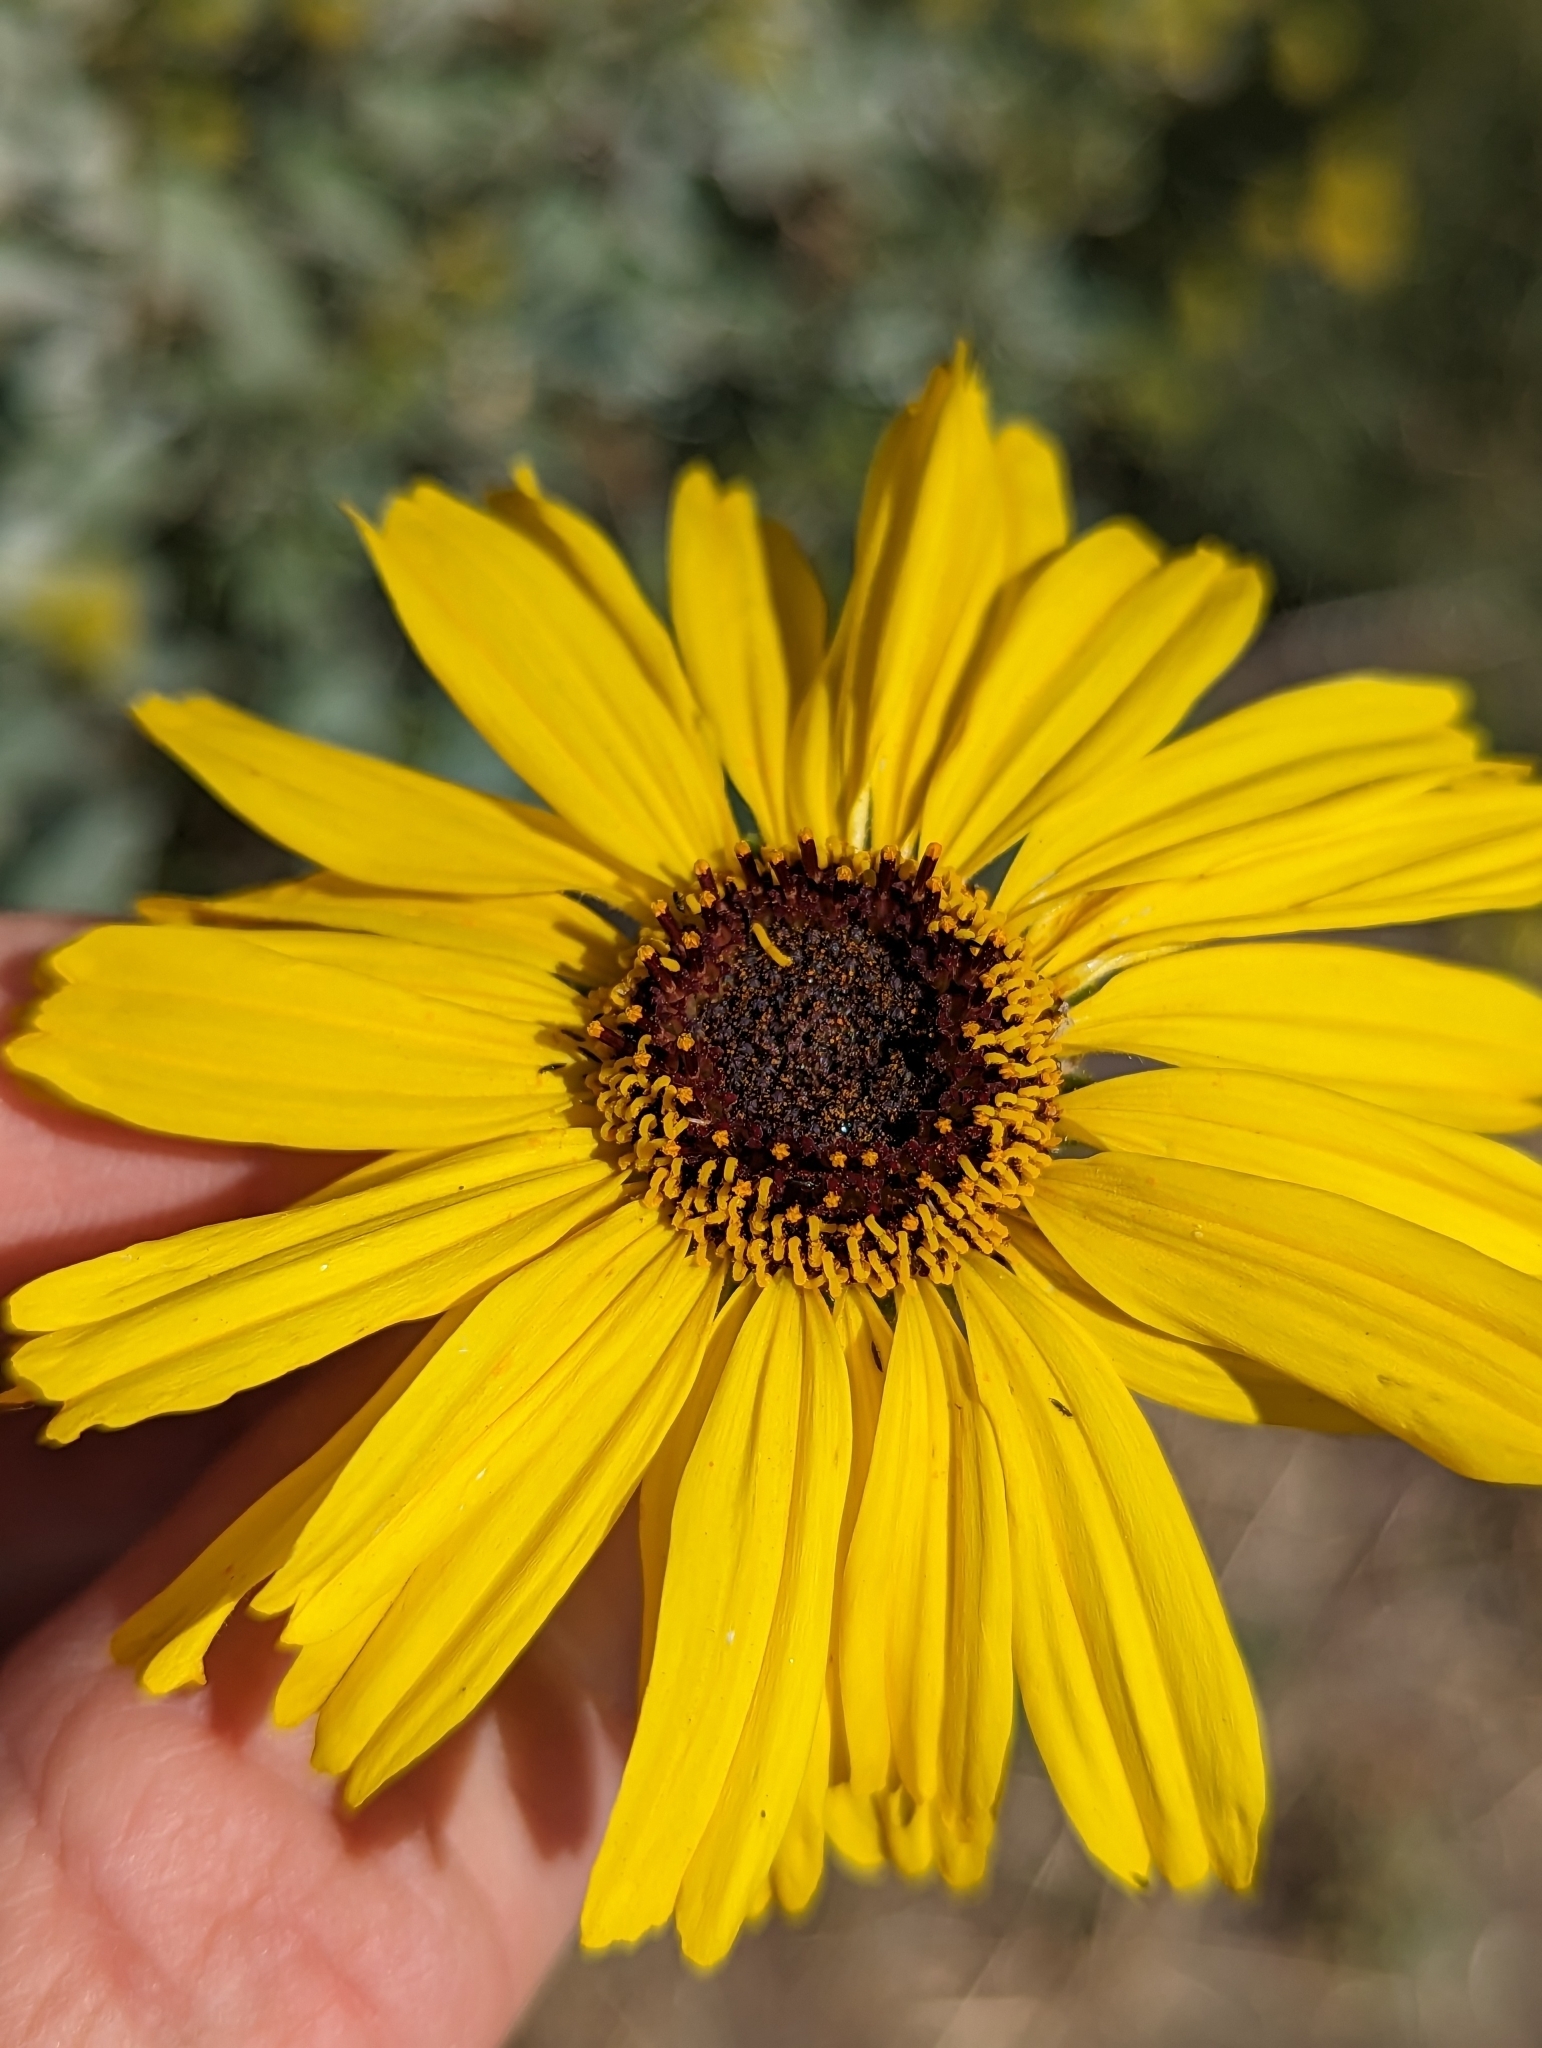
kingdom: Plantae
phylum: Tracheophyta
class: Magnoliopsida
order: Asterales
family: Asteraceae
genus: Encelia
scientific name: Encelia californica
